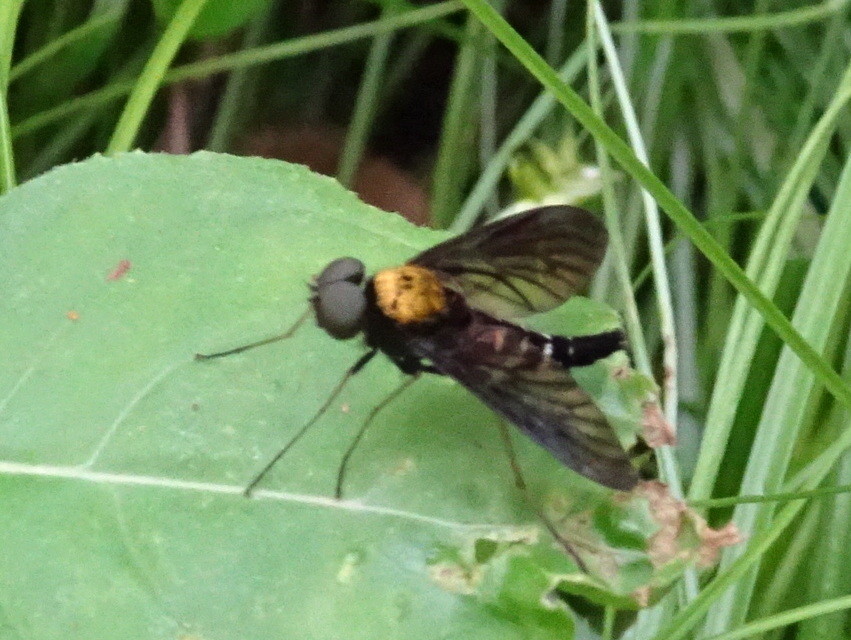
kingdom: Animalia
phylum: Arthropoda
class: Insecta
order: Diptera
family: Rhagionidae
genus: Chrysopilus
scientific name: Chrysopilus thoracicus
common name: Golden-backed snipe fly
